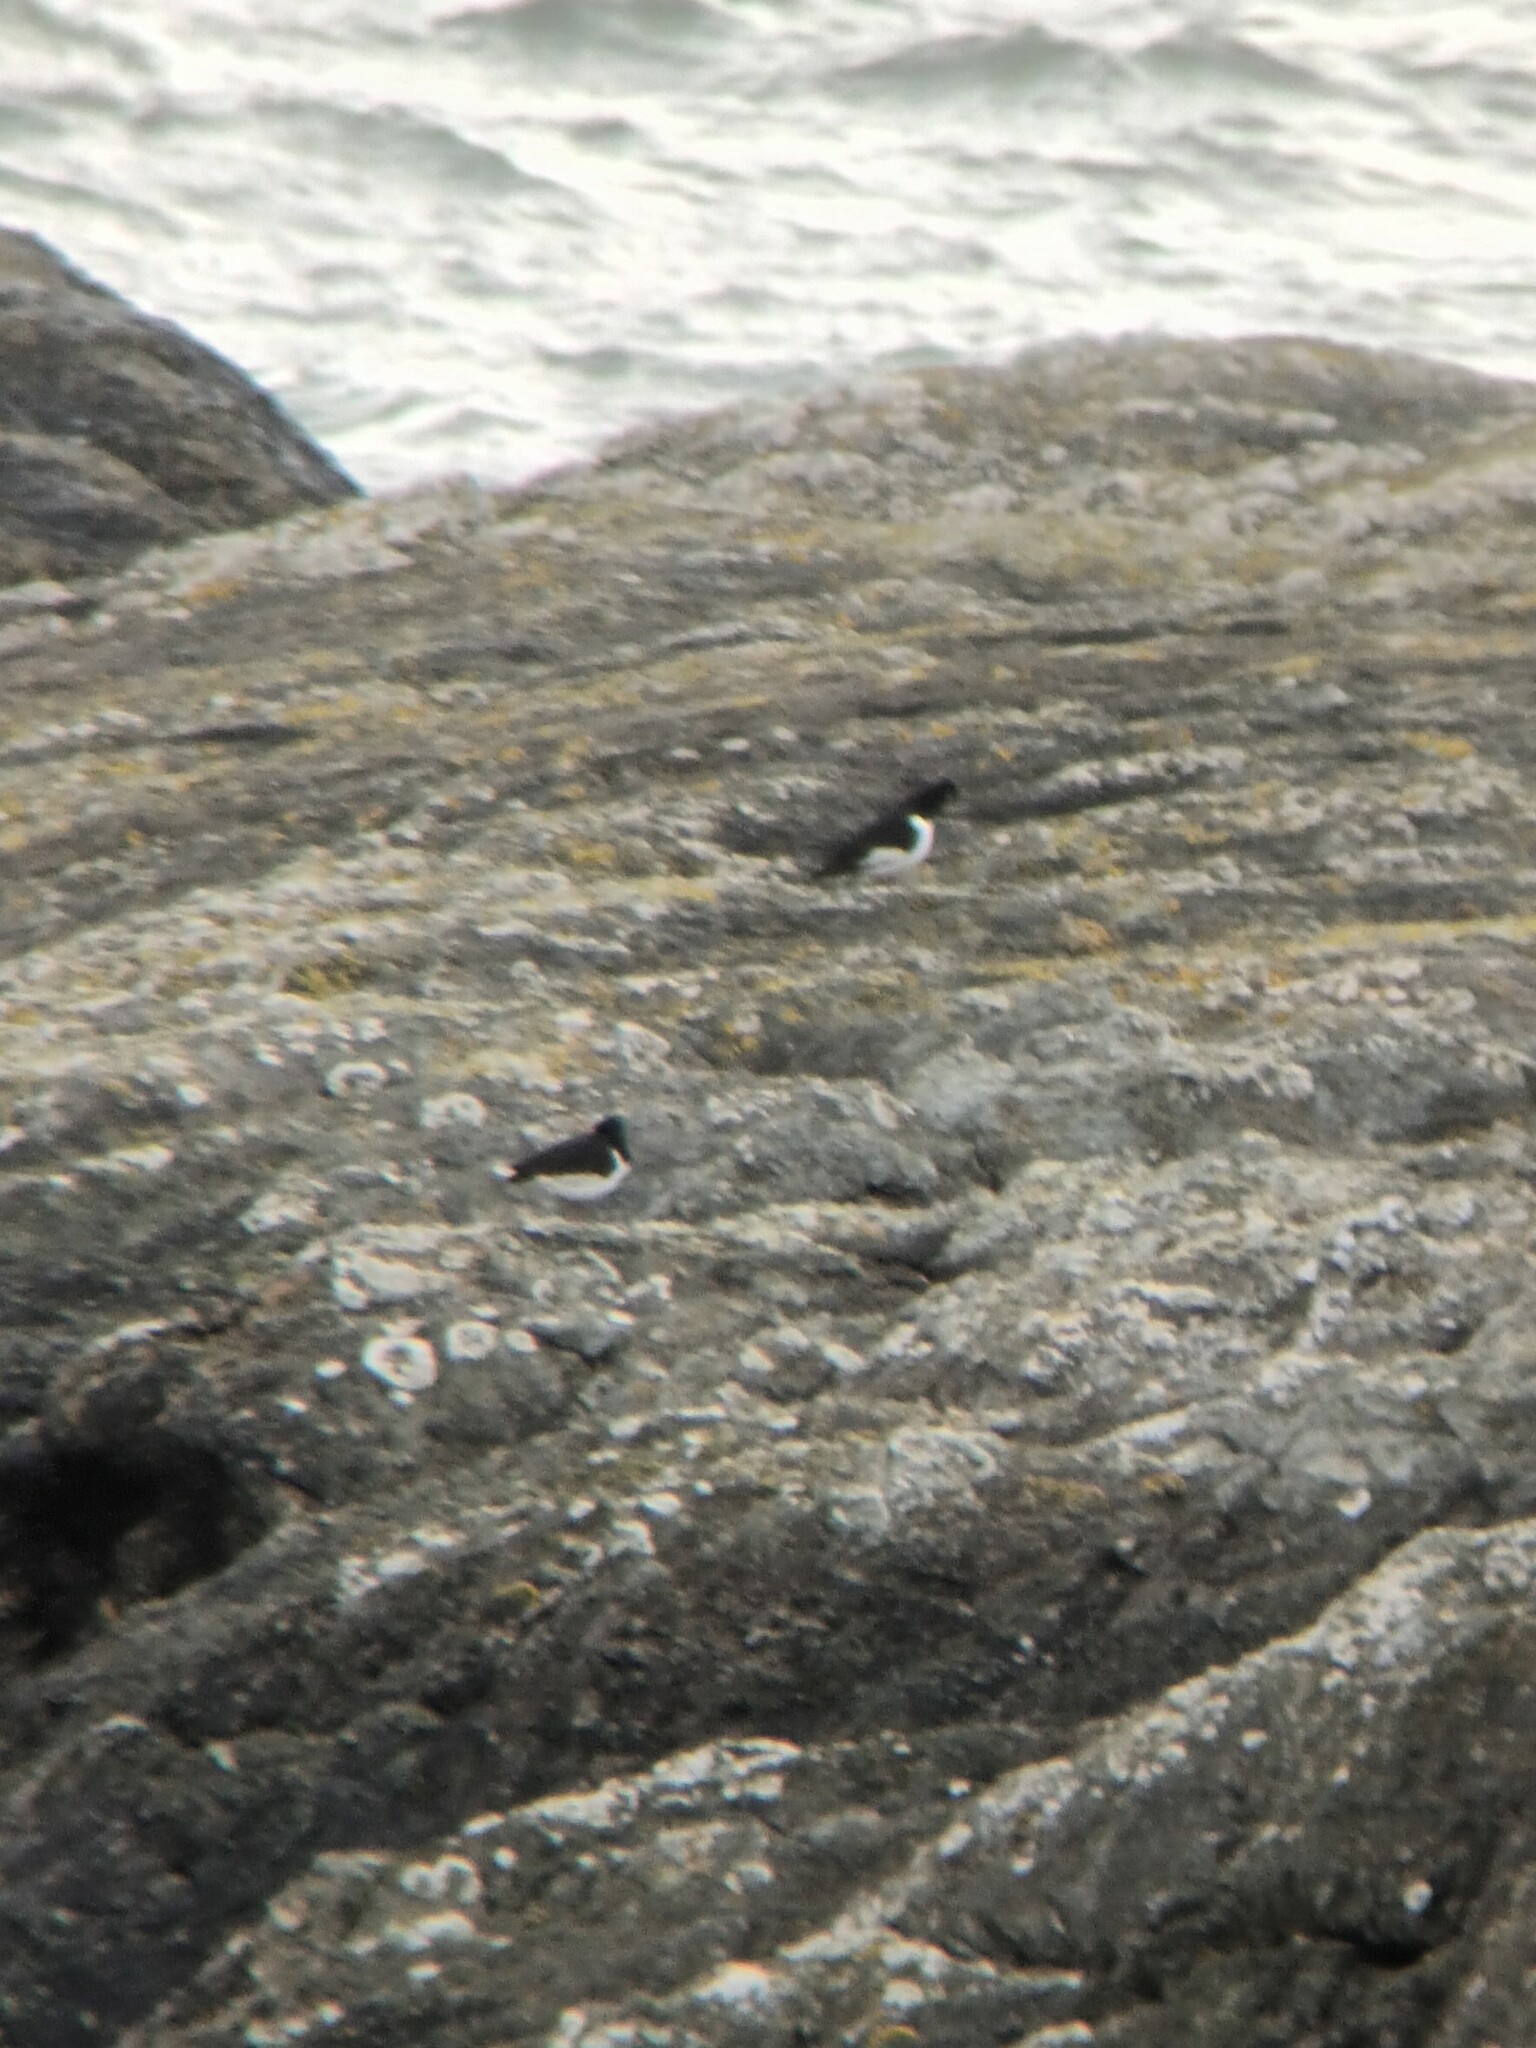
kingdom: Animalia
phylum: Chordata
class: Aves
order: Charadriiformes
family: Haematopodidae
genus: Haematopus
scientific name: Haematopus ostralegus
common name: Eurasian oystercatcher
